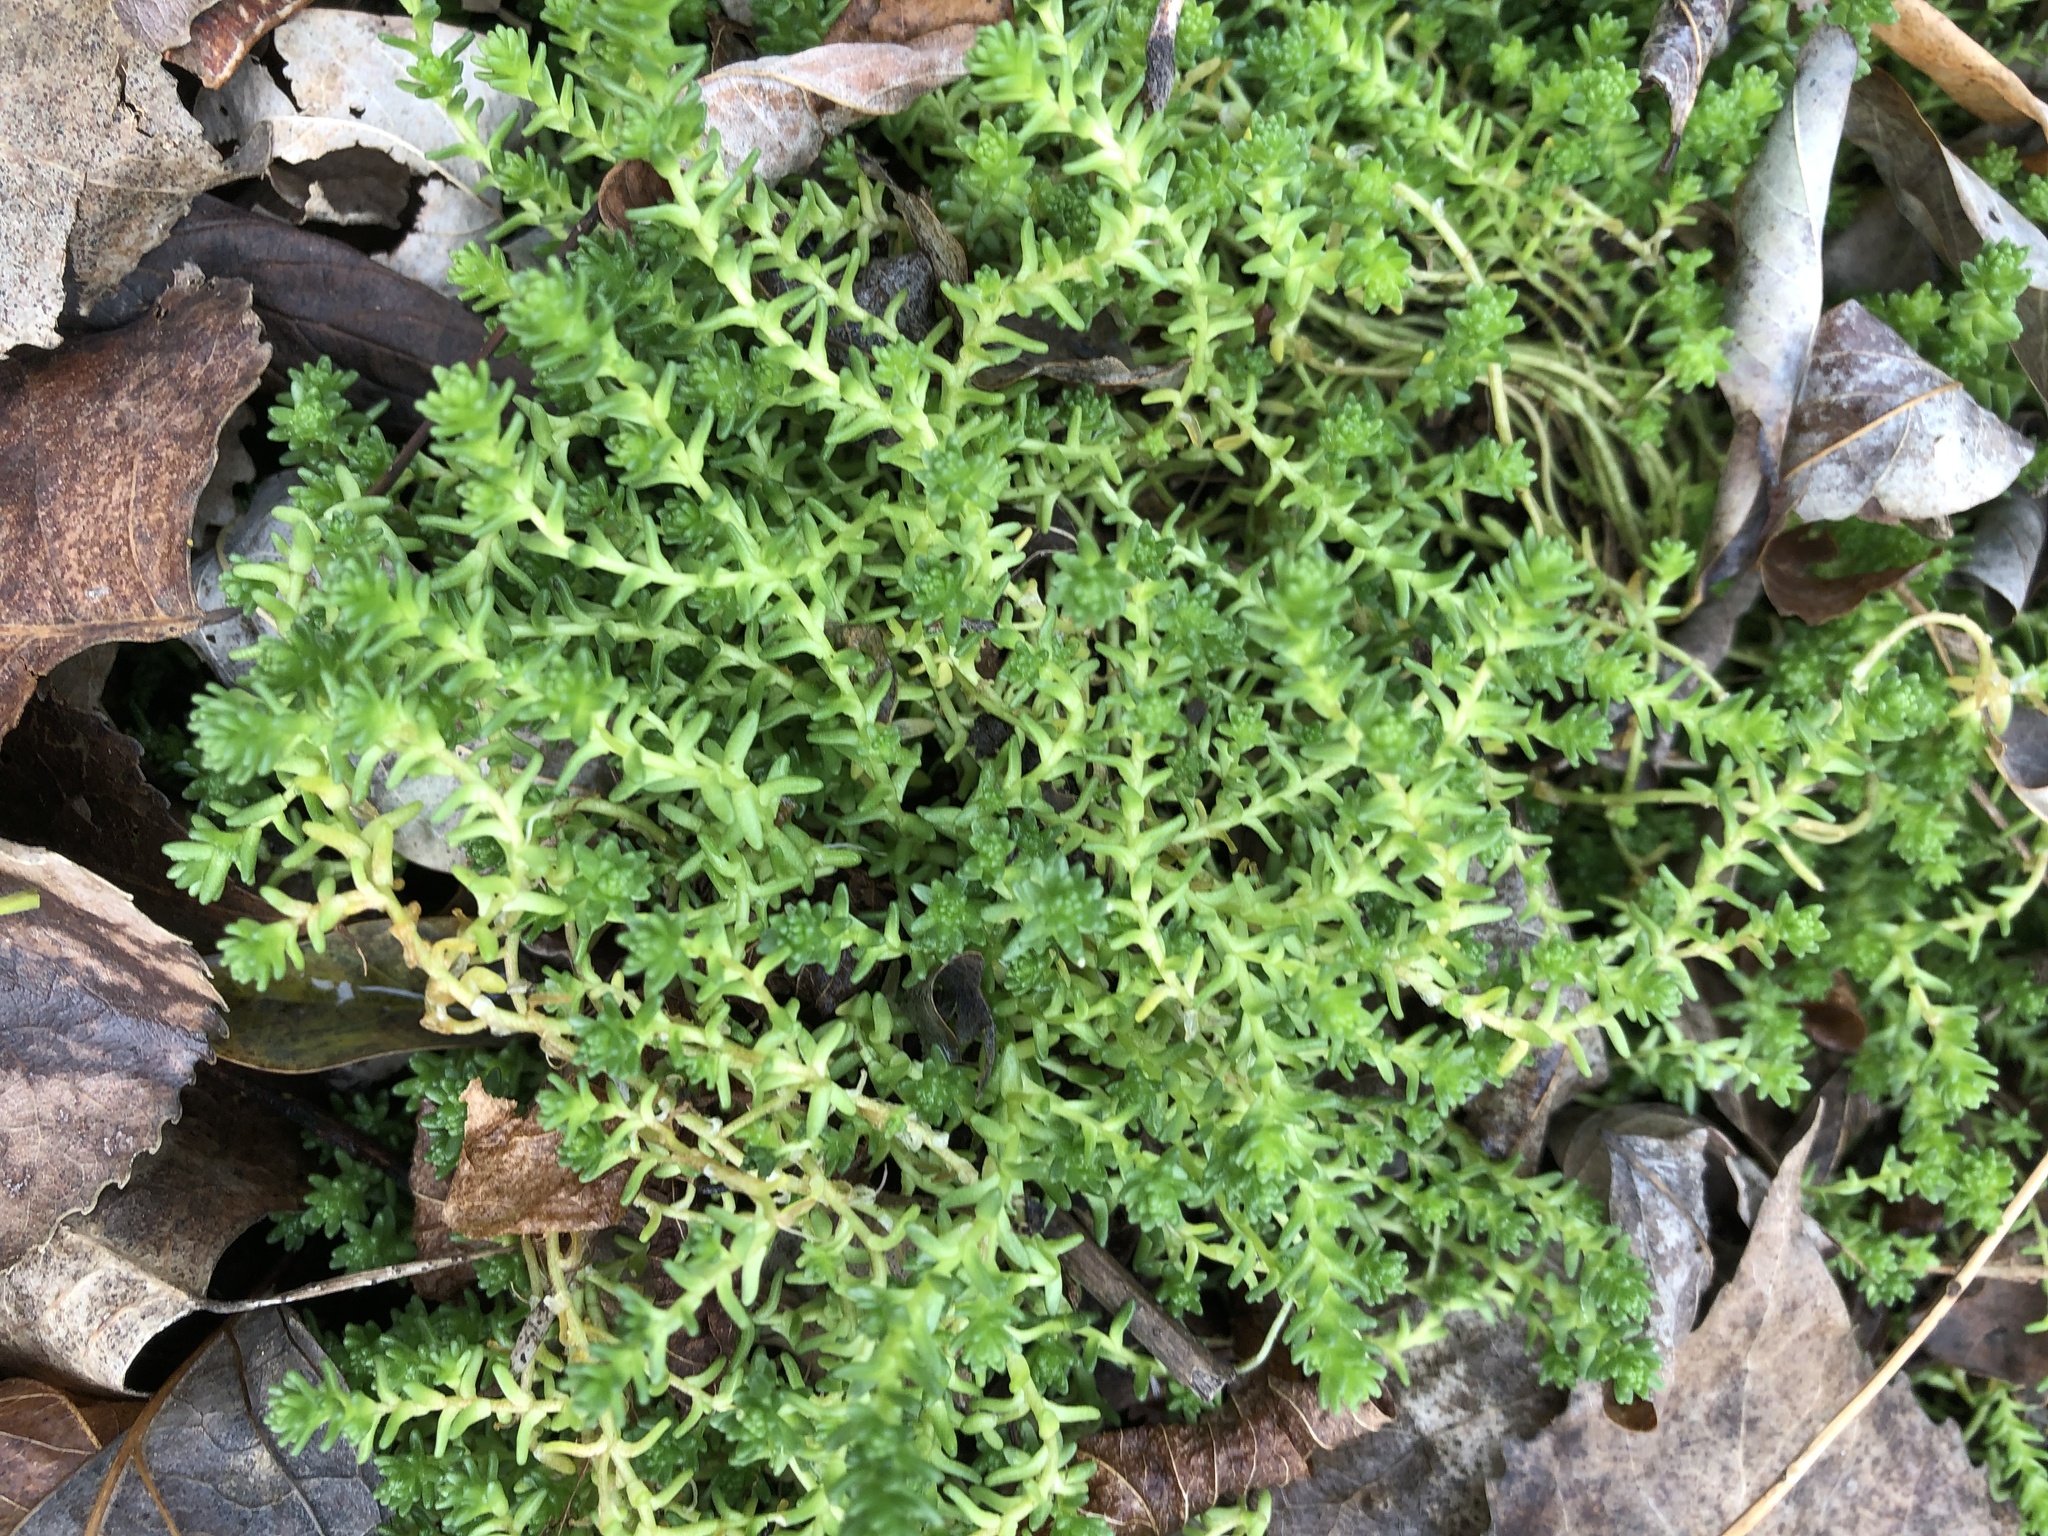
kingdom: Plantae
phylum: Tracheophyta
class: Magnoliopsida
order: Saxifragales
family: Crassulaceae
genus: Sedum
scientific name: Sedum acre
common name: Biting stonecrop
